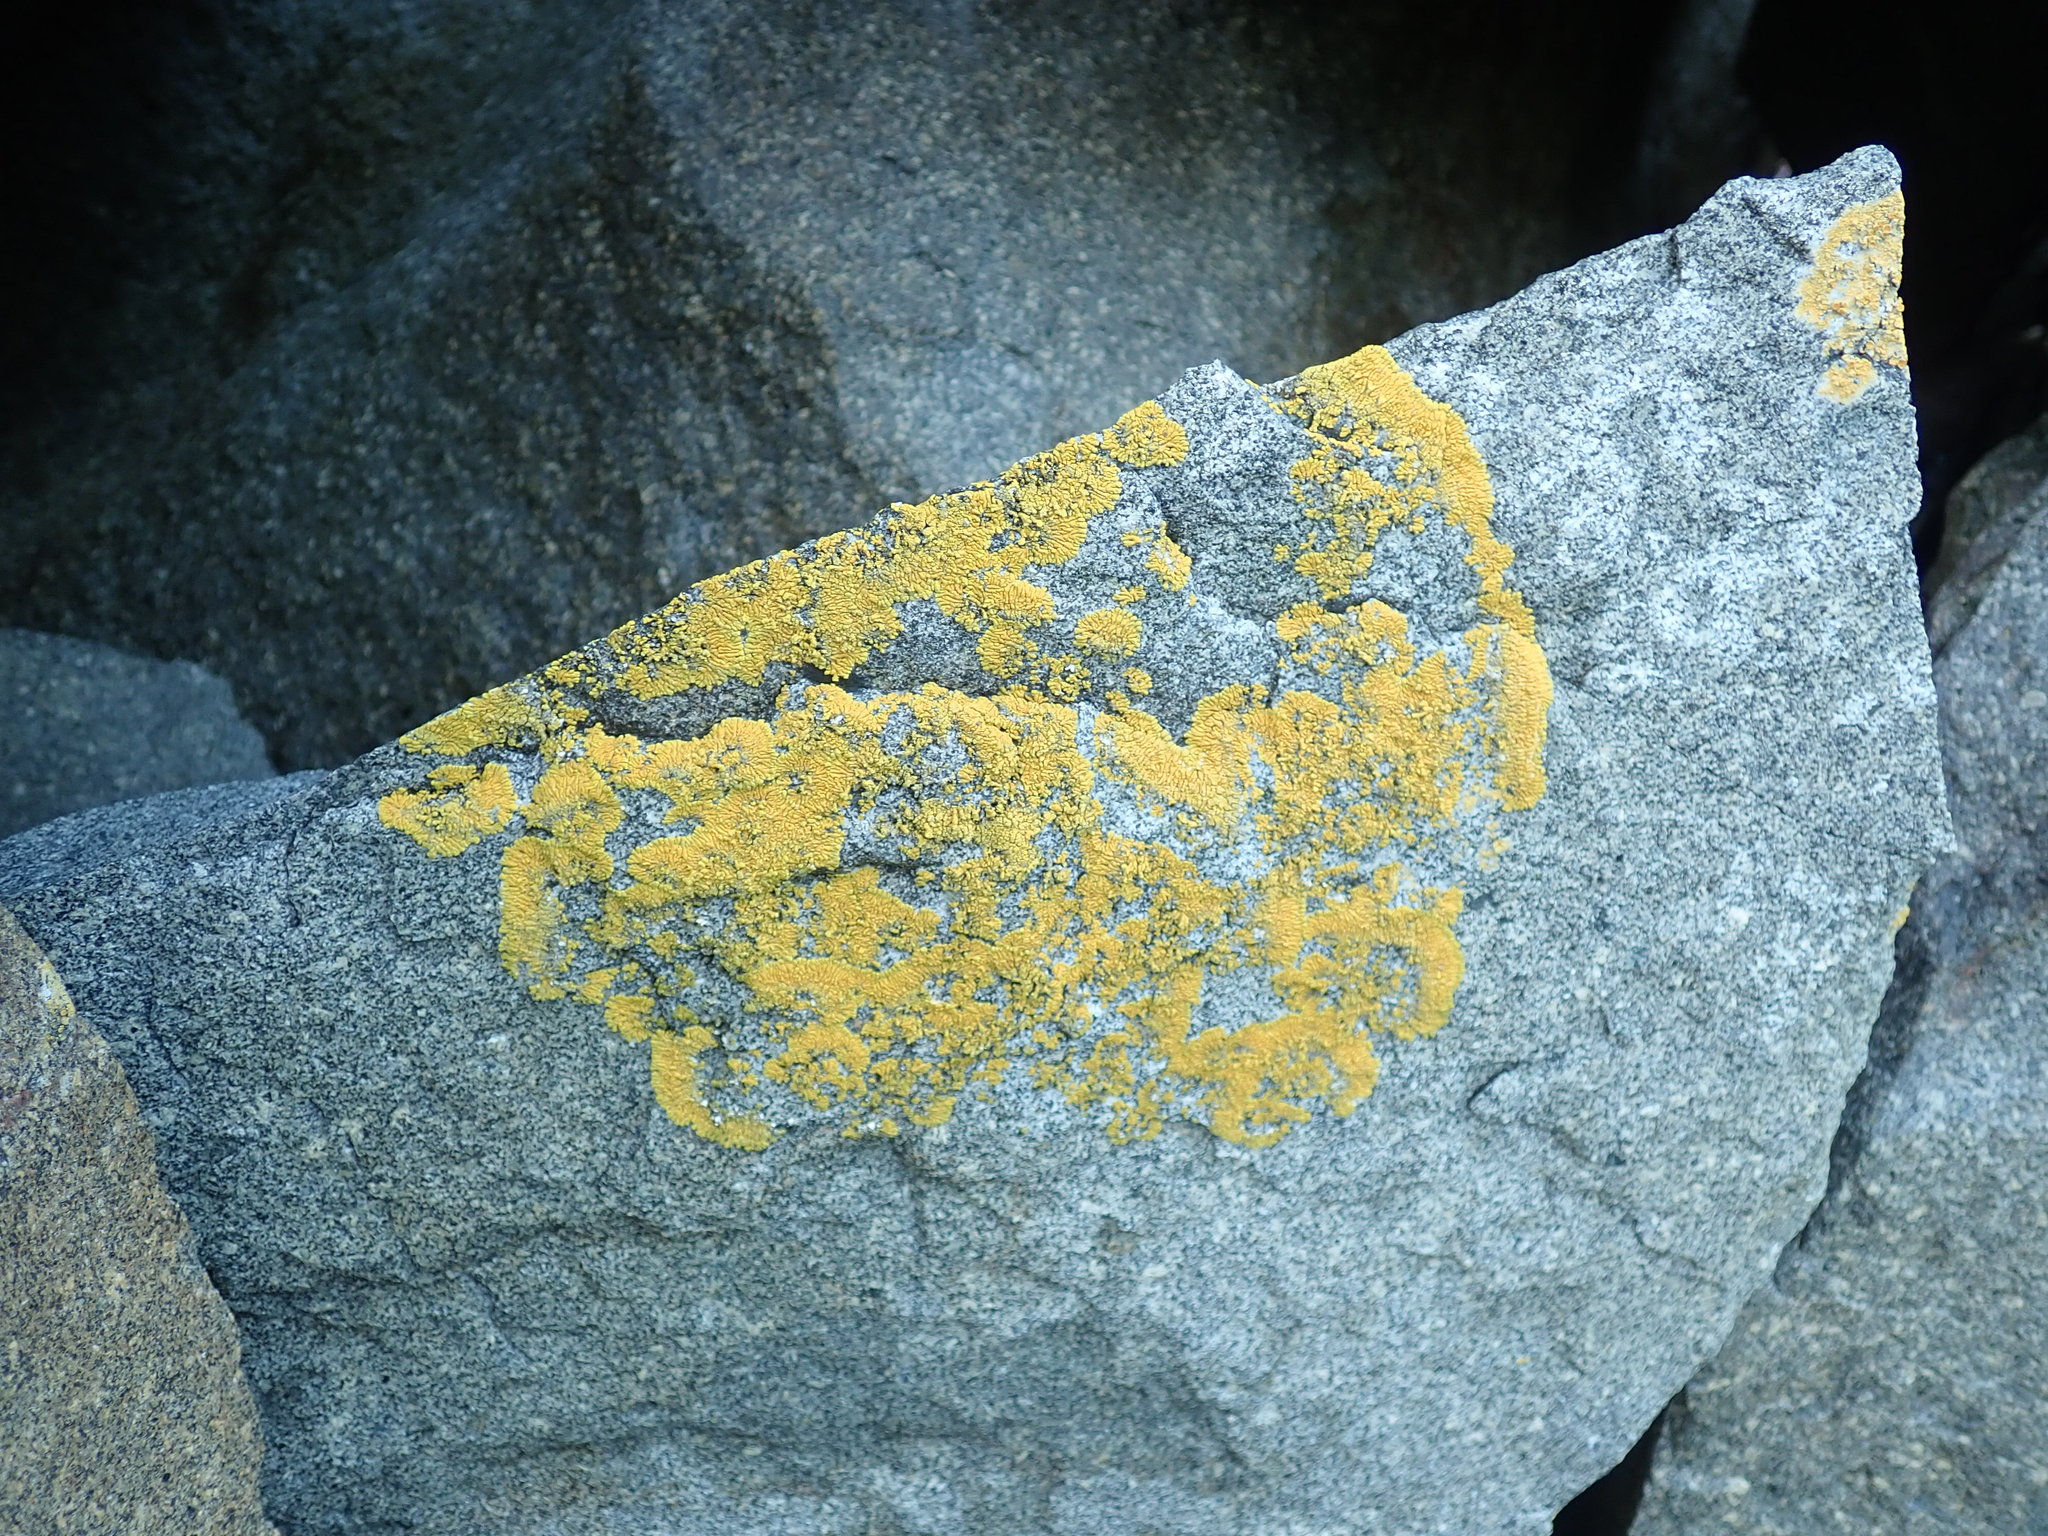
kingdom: Fungi
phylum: Ascomycota
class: Lecanoromycetes
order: Teloschistales
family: Teloschistaceae
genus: Verrucoplaca
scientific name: Verrucoplaca verruculifera
